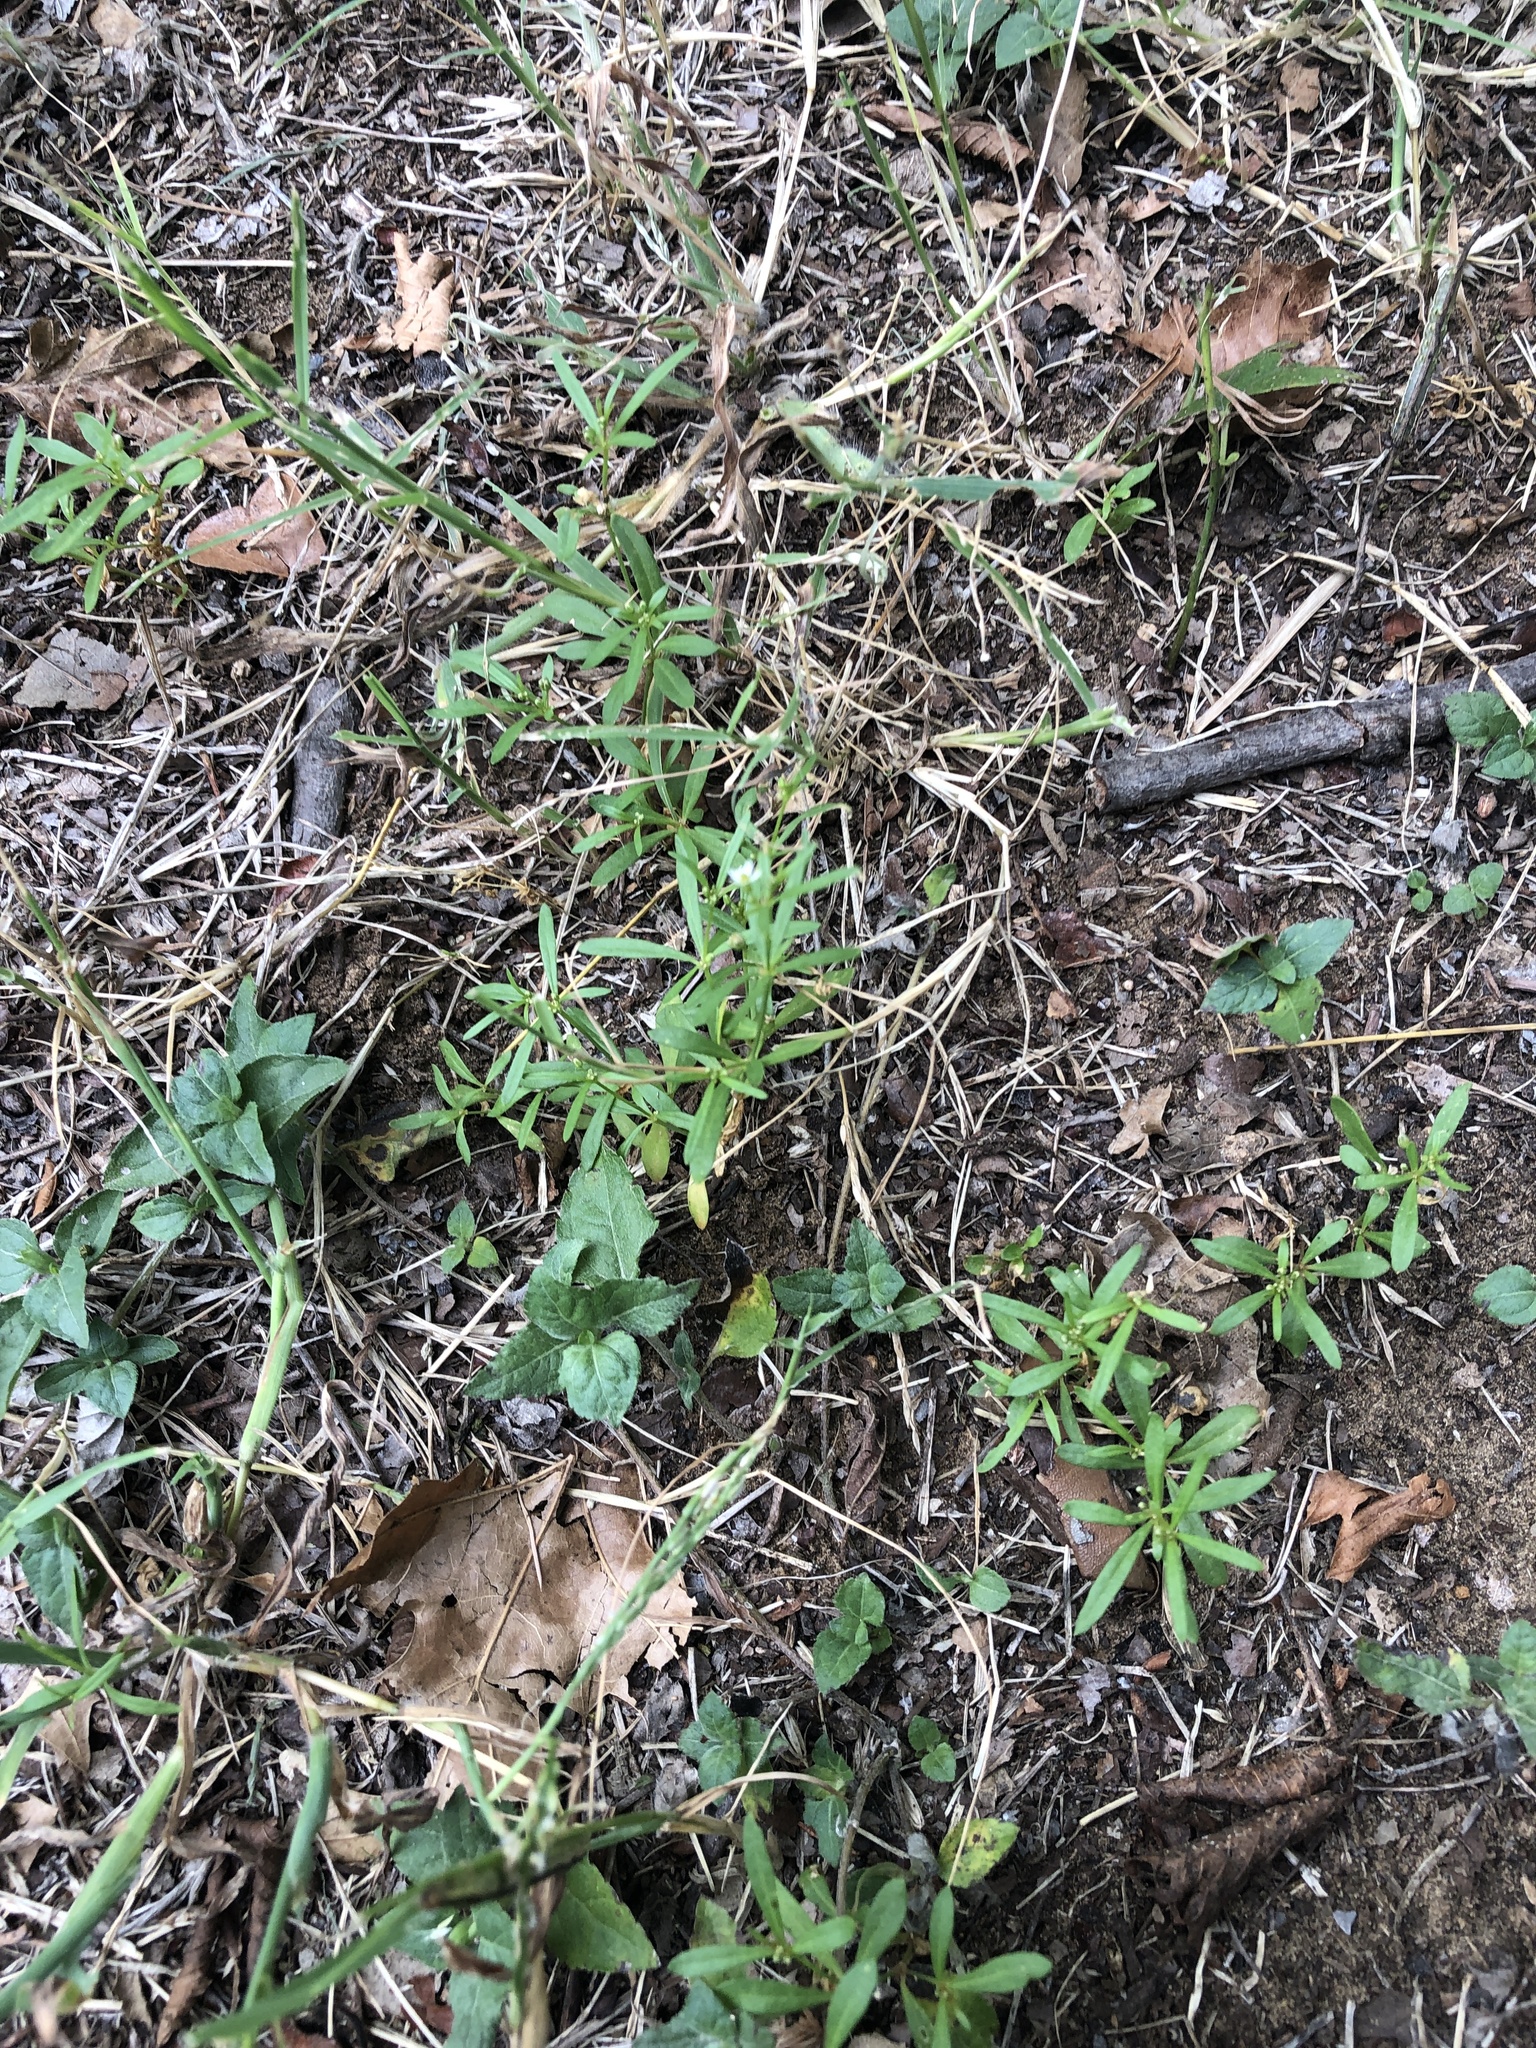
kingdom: Plantae
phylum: Tracheophyta
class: Magnoliopsida
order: Caryophyllales
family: Molluginaceae
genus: Mollugo
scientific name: Mollugo verticillata
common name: Green carpetweed
